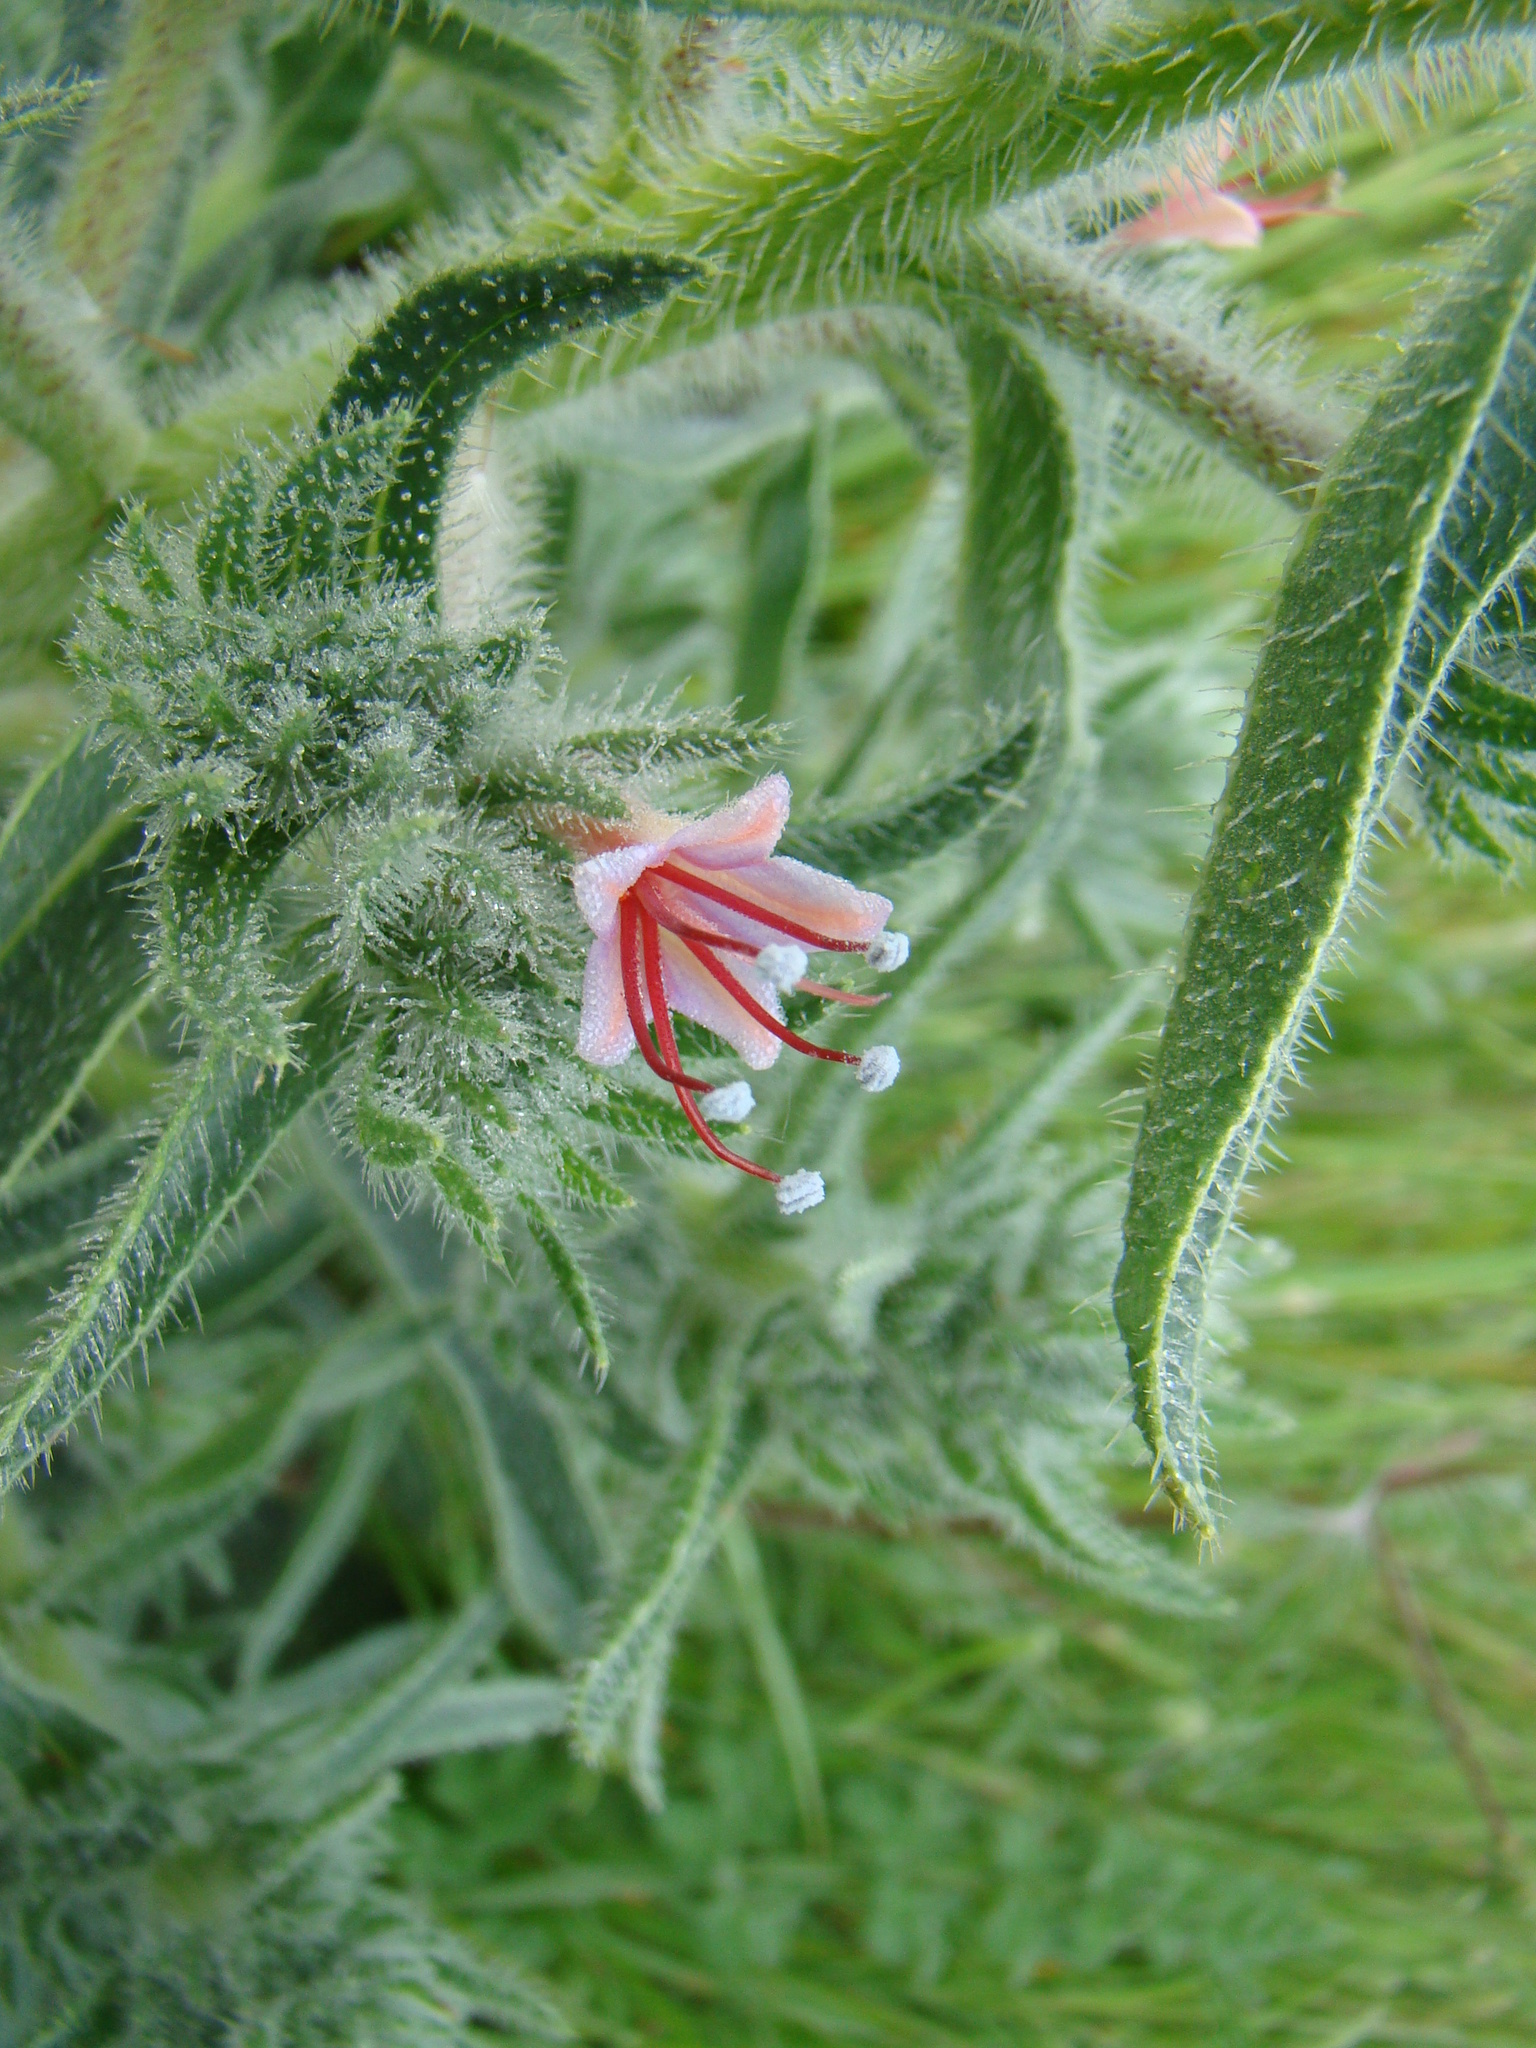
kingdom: Plantae
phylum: Tracheophyta
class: Magnoliopsida
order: Boraginales
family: Boraginaceae
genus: Echium
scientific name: Echium asperrimum
